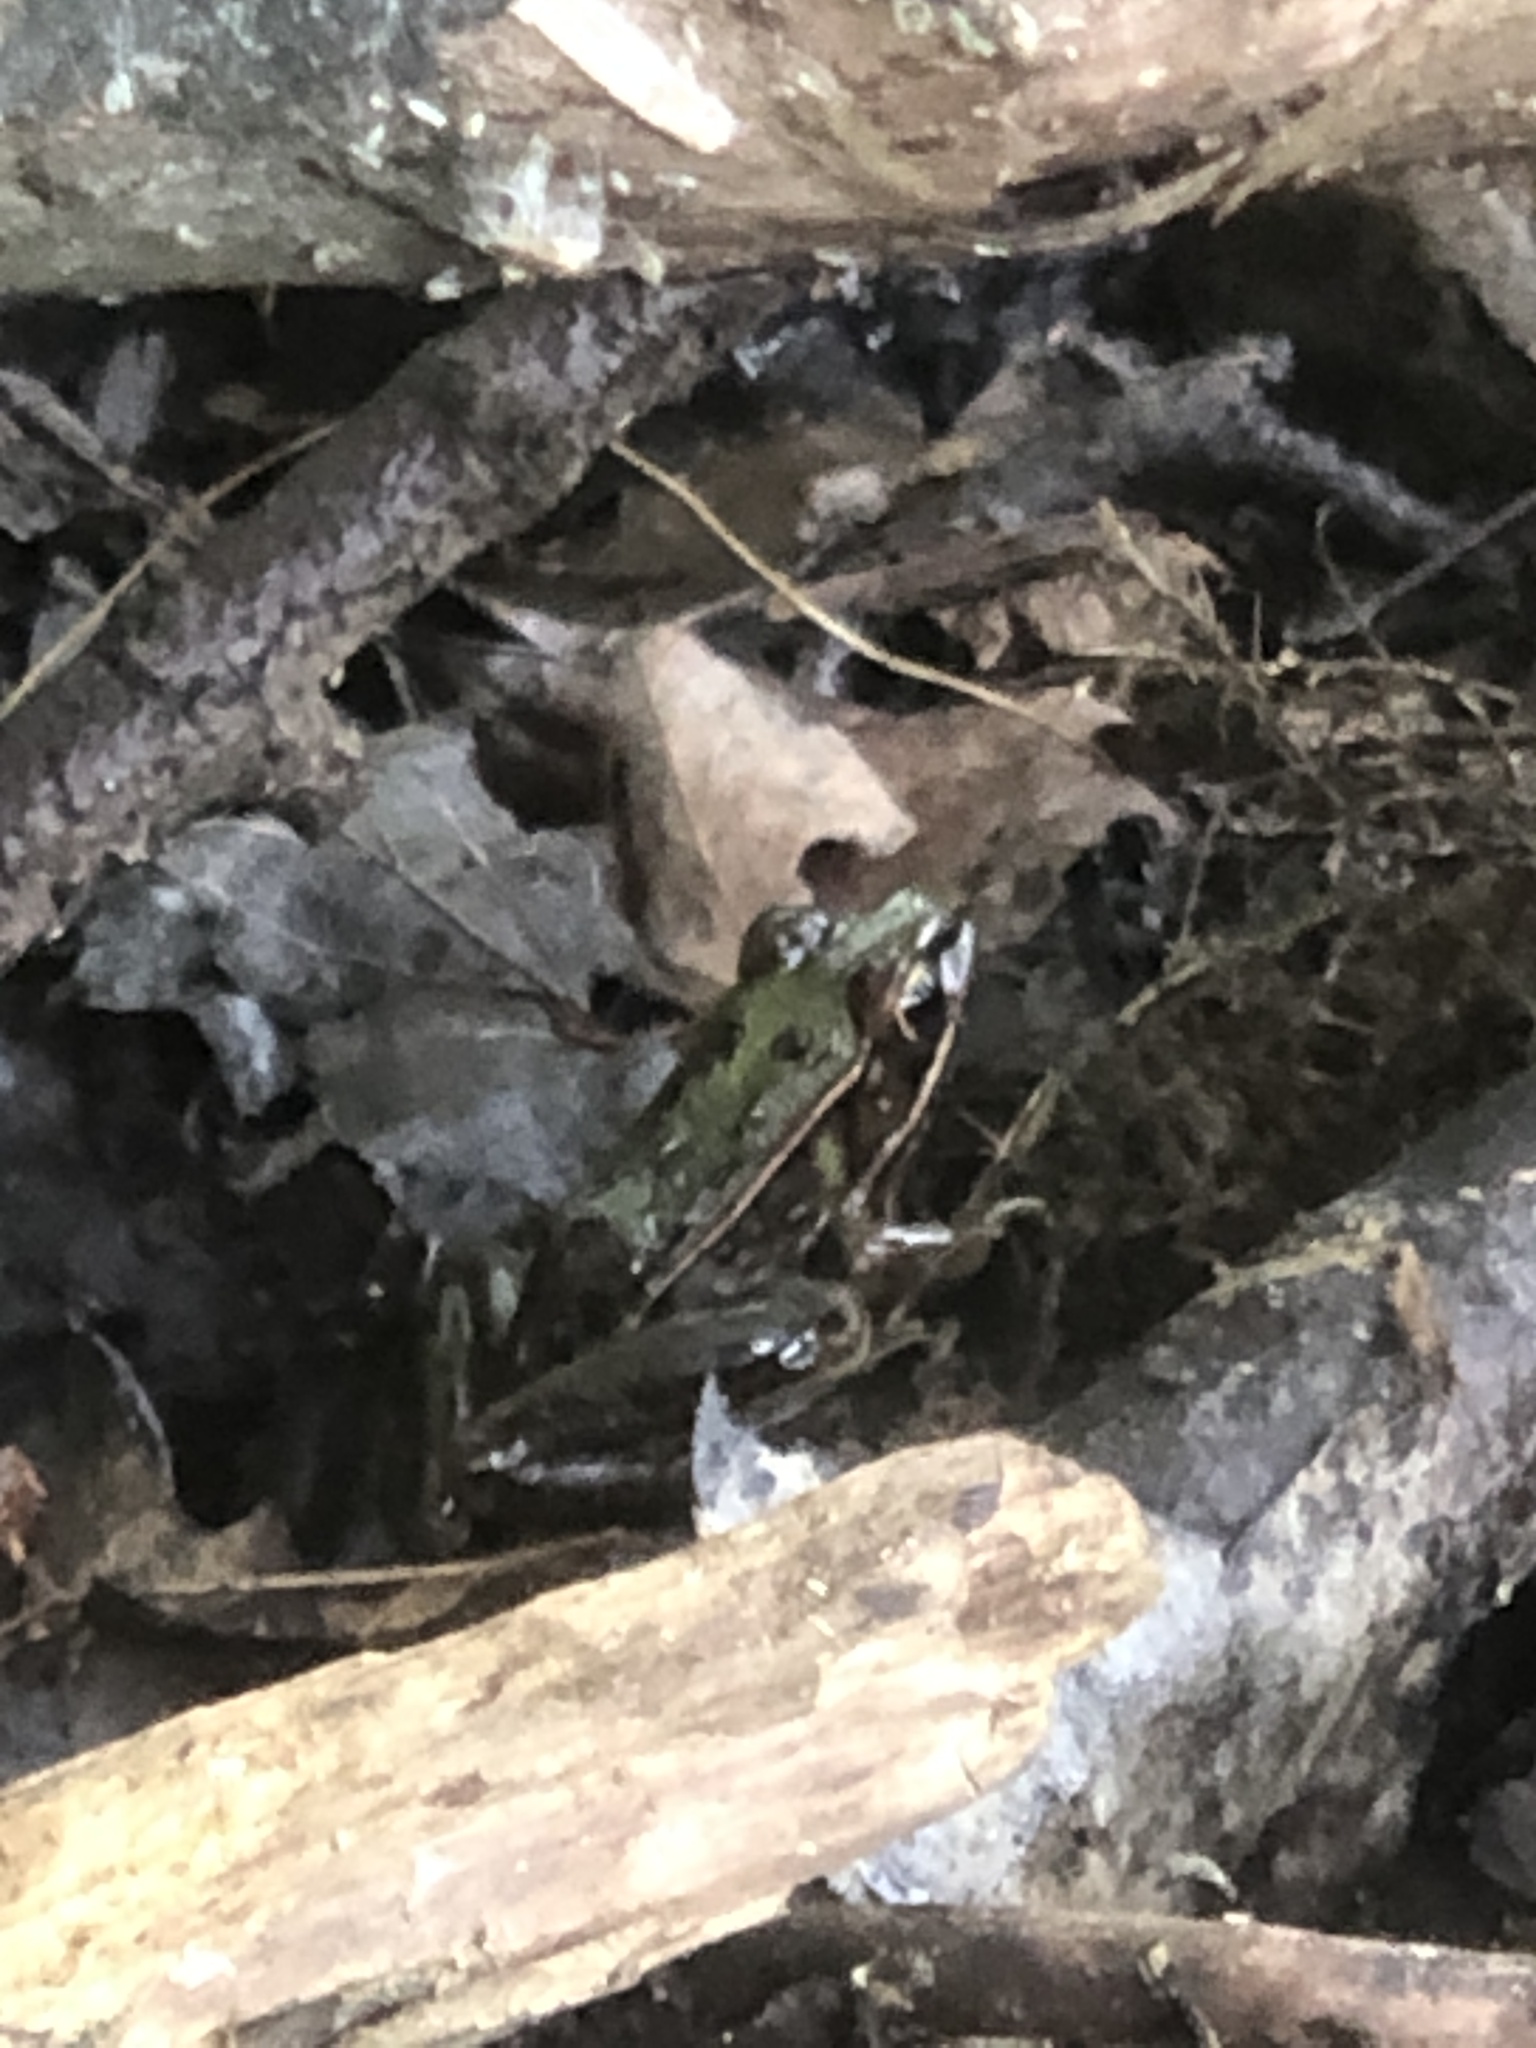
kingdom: Animalia
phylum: Chordata
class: Amphibia
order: Anura
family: Ranidae
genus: Lithobates
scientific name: Lithobates sphenocephalus
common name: Southern leopard frog
